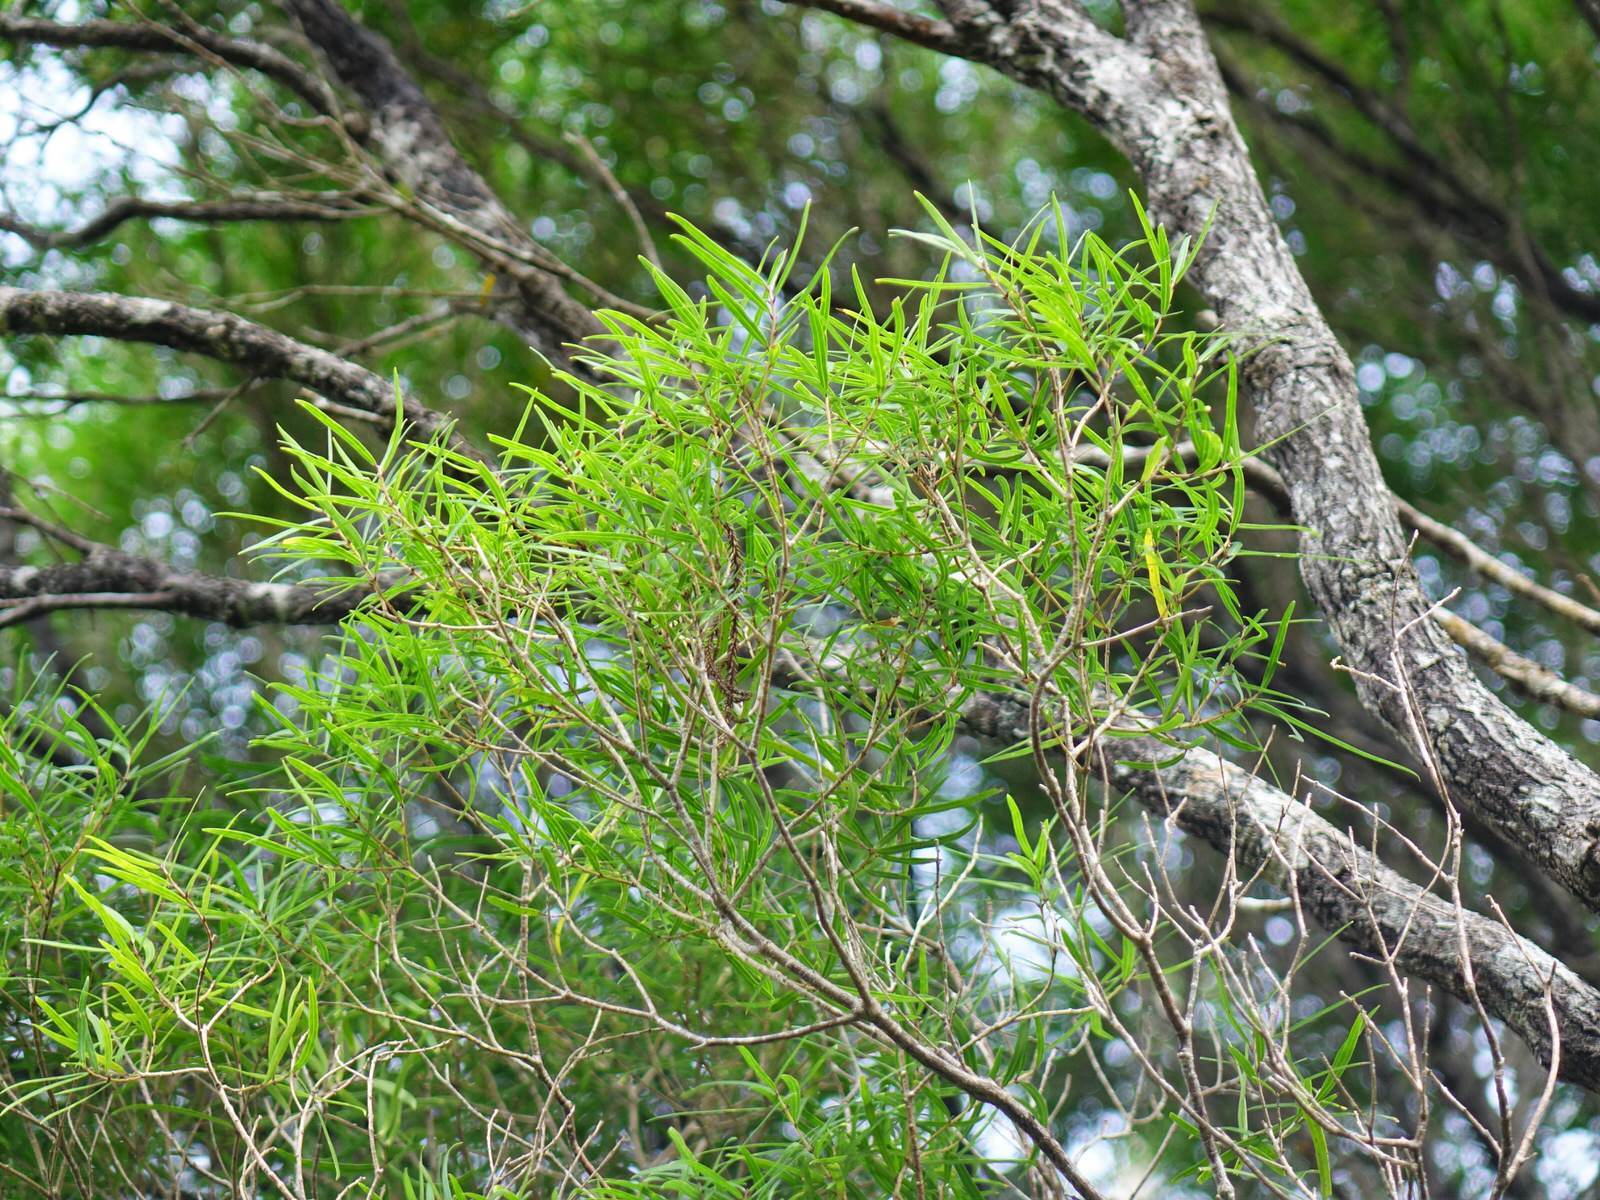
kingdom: Plantae
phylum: Tracheophyta
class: Magnoliopsida
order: Lamiales
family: Oleaceae
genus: Nestegis
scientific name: Nestegis montana
